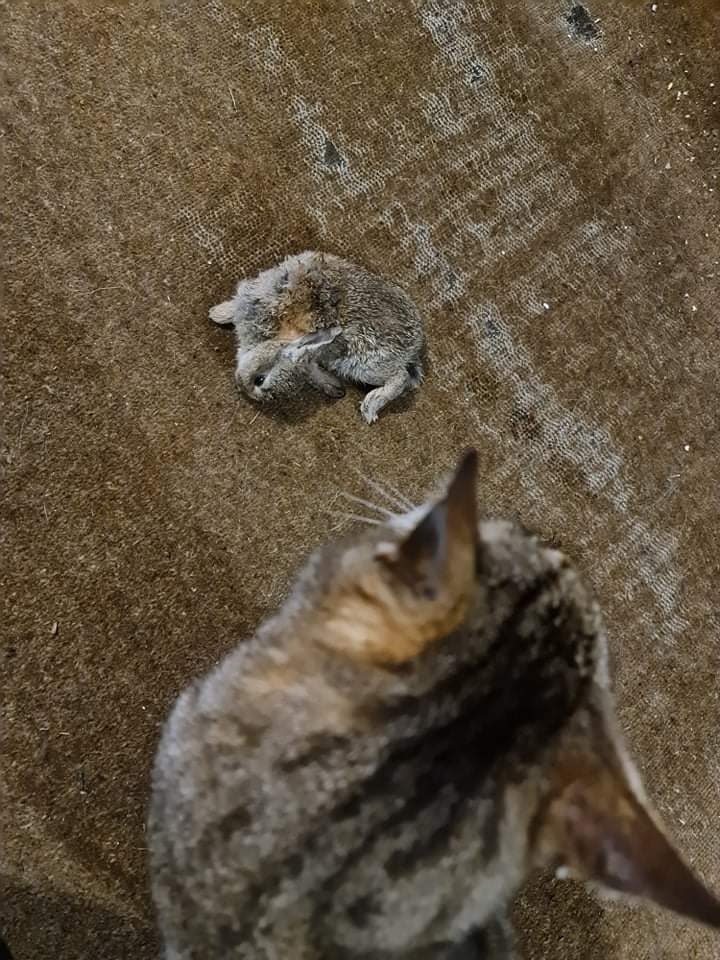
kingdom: Animalia
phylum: Chordata
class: Mammalia
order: Lagomorpha
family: Leporidae
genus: Oryctolagus
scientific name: Oryctolagus cuniculus
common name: European rabbit
